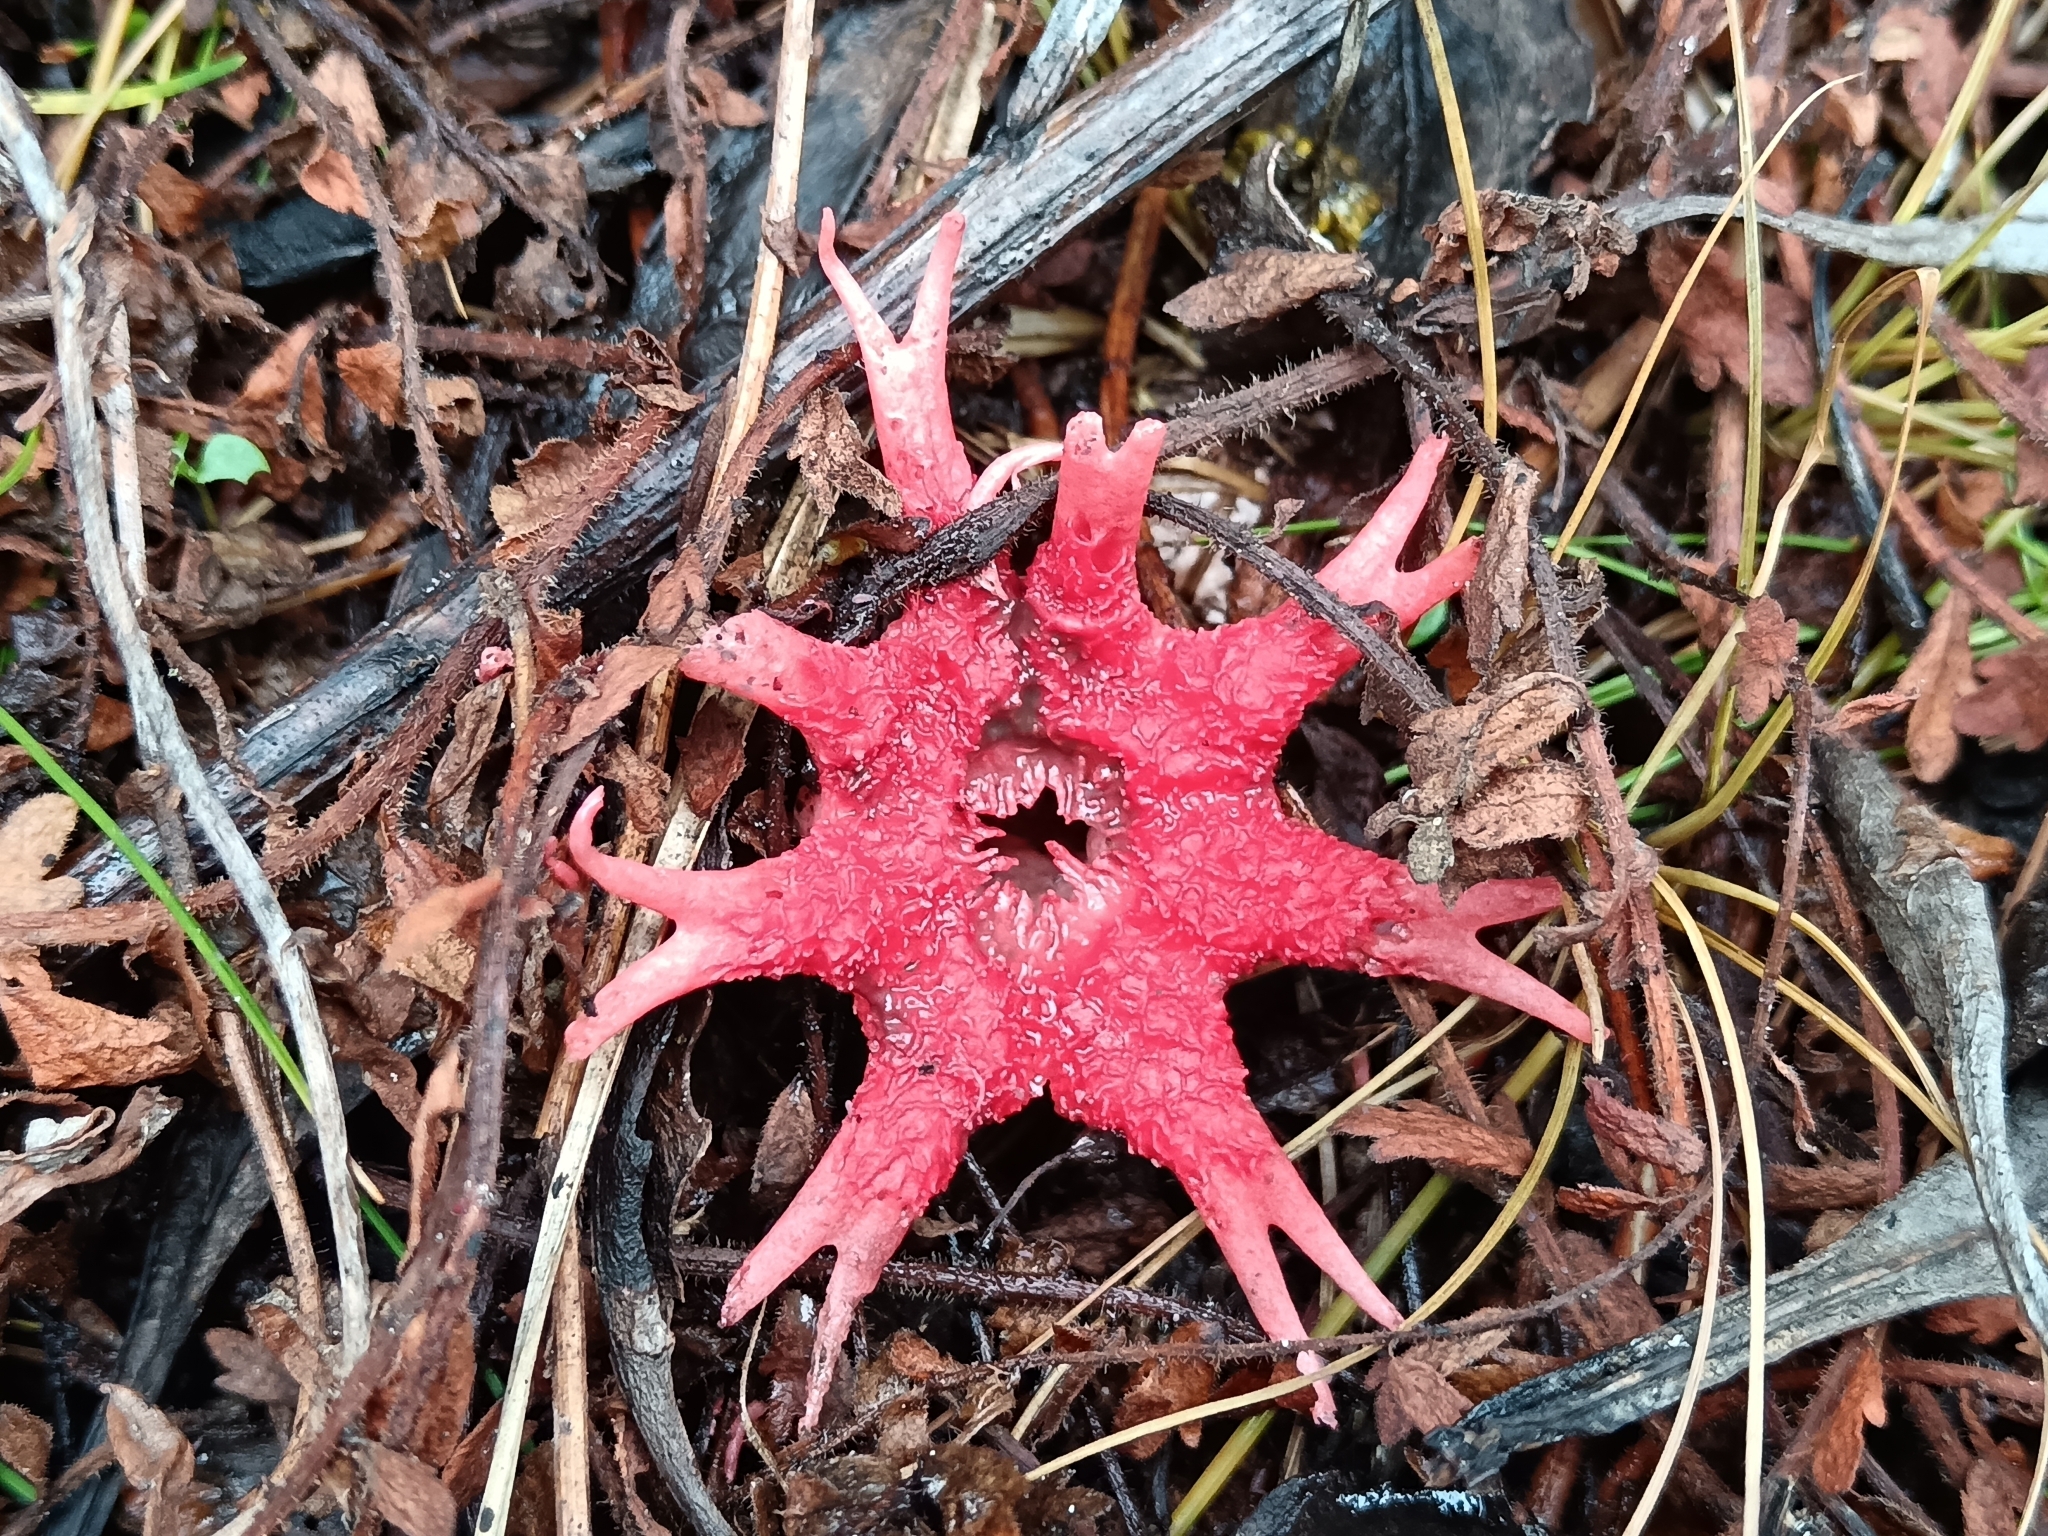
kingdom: Fungi
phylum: Basidiomycota
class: Agaricomycetes
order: Phallales
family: Phallaceae
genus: Aseroe
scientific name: Aseroe rubra
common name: Starfish fungus
